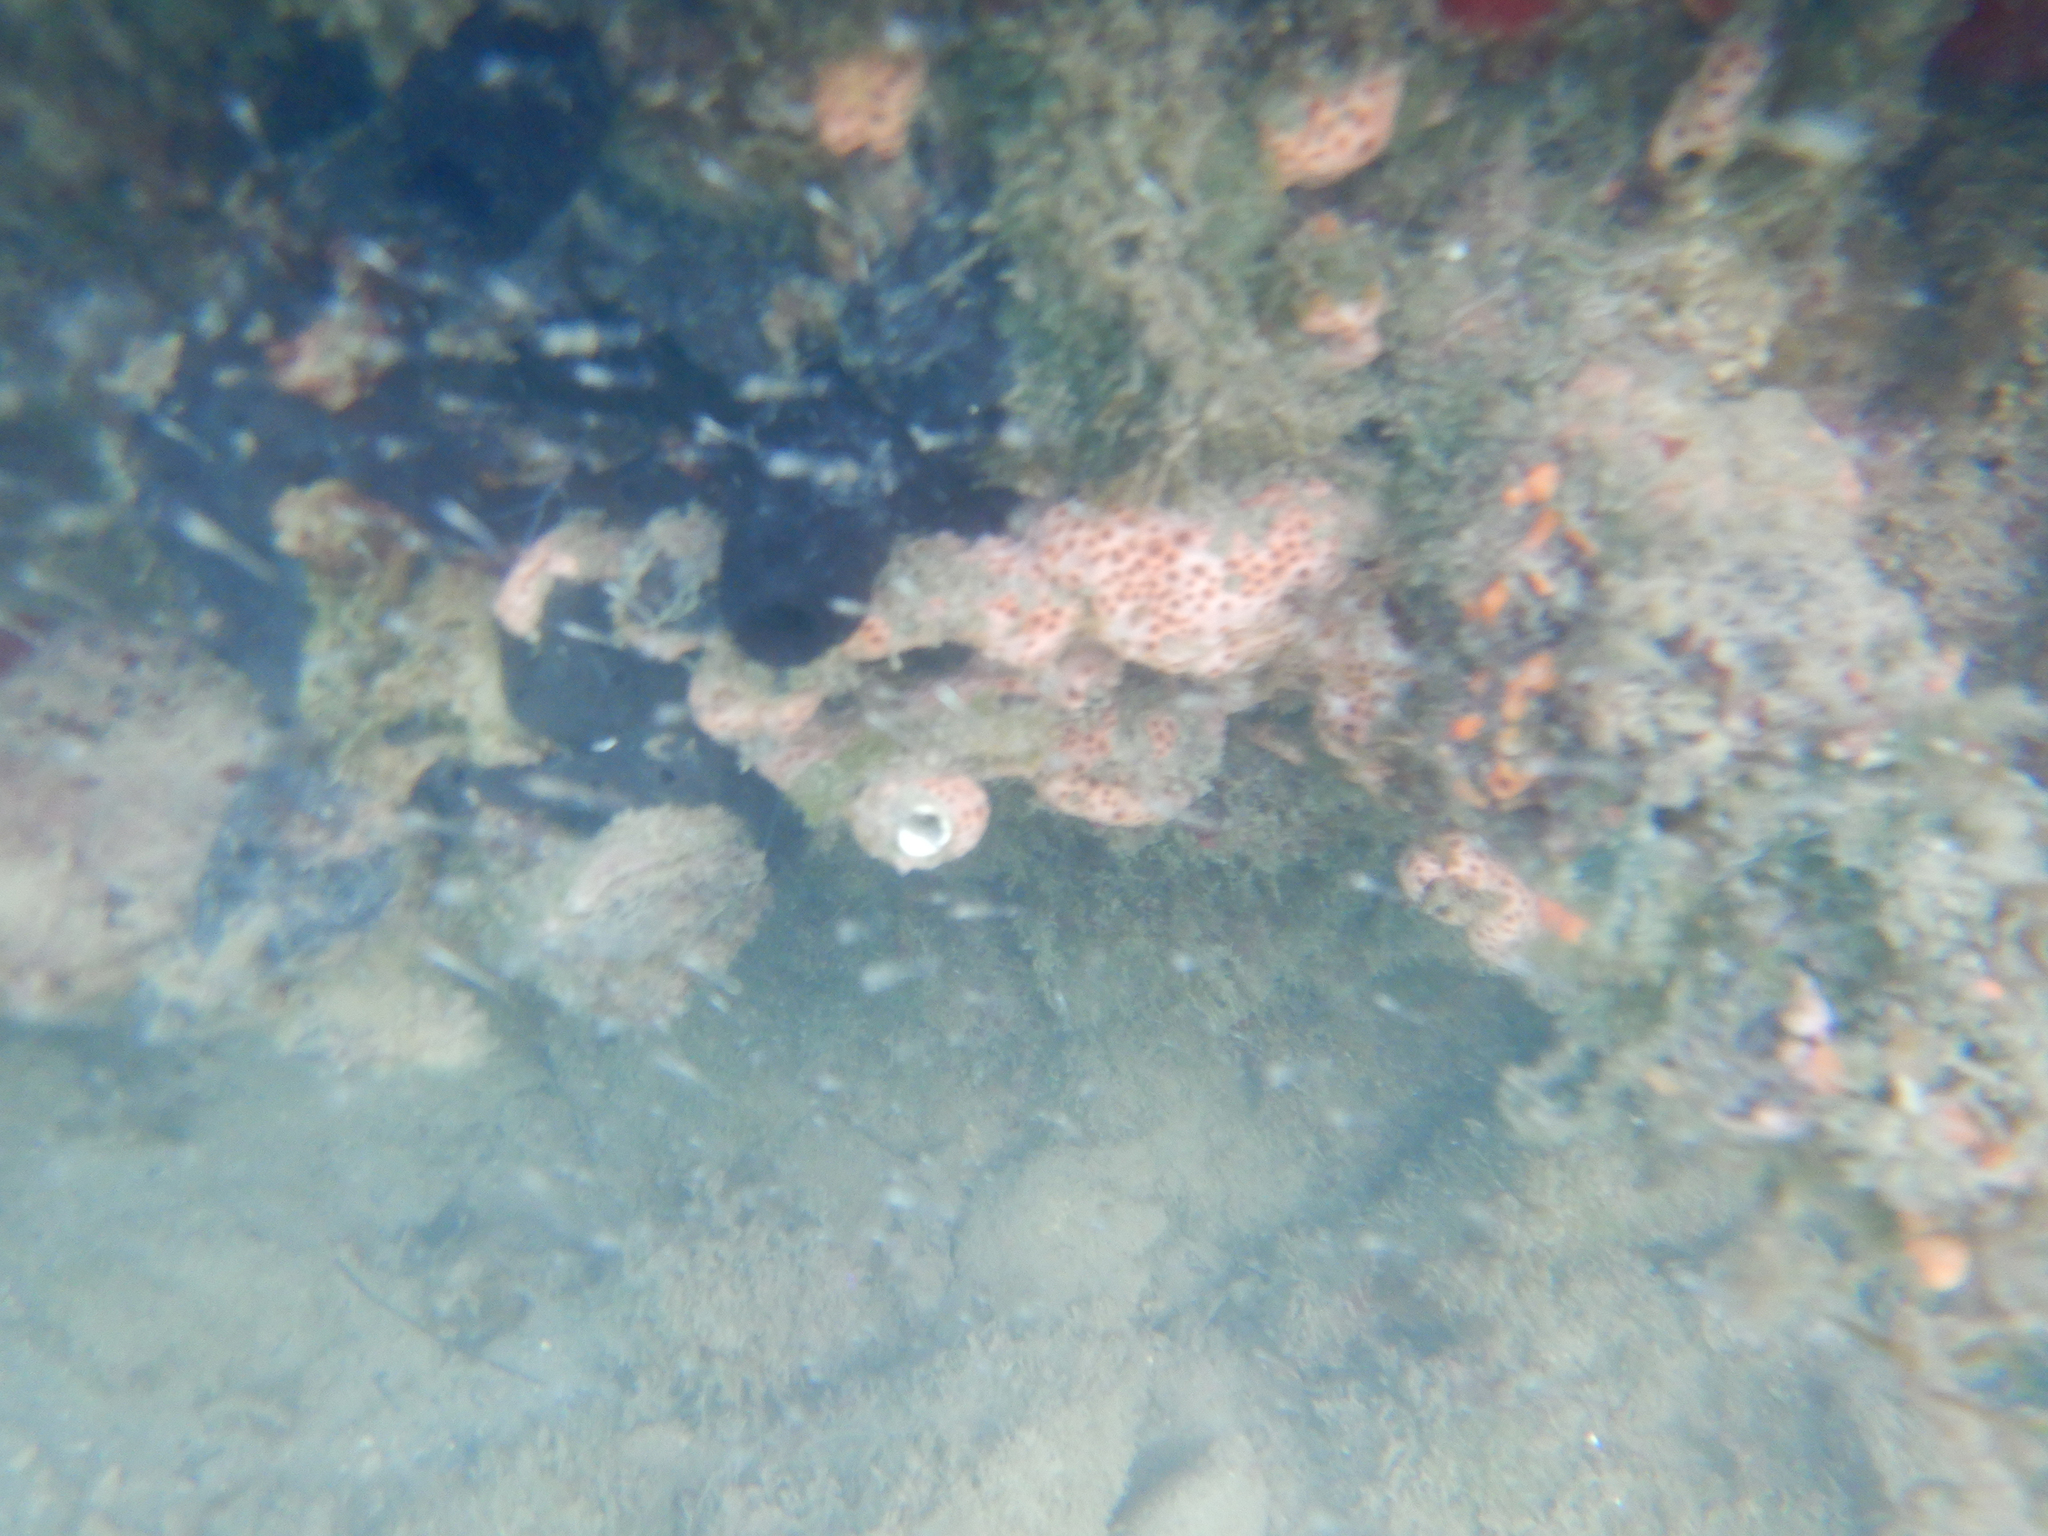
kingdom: Animalia
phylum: Porifera
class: Demospongiae
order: Poecilosclerida
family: Hymedesmiidae
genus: Hemimycale
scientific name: Hemimycale columella
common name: Crater sponge
